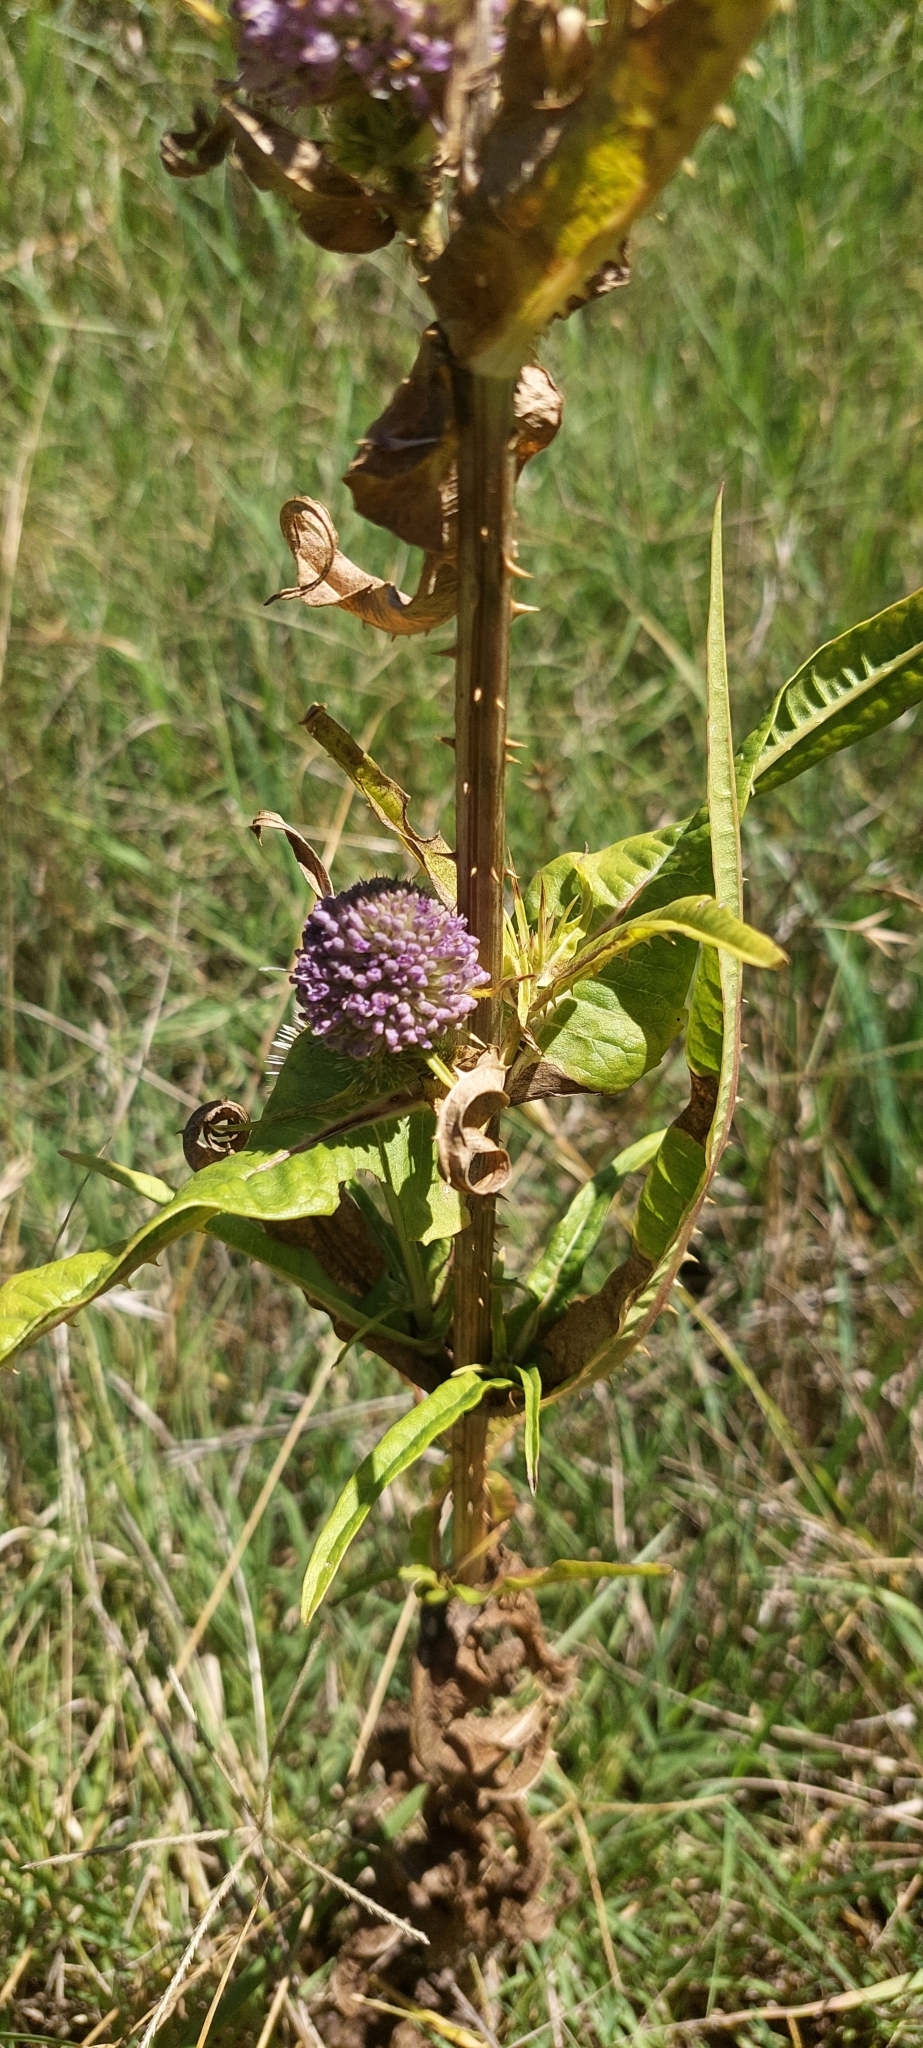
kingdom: Plantae
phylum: Tracheophyta
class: Magnoliopsida
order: Dipsacales
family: Caprifoliaceae
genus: Dipsacus
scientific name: Dipsacus fullonum
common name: Teasel
